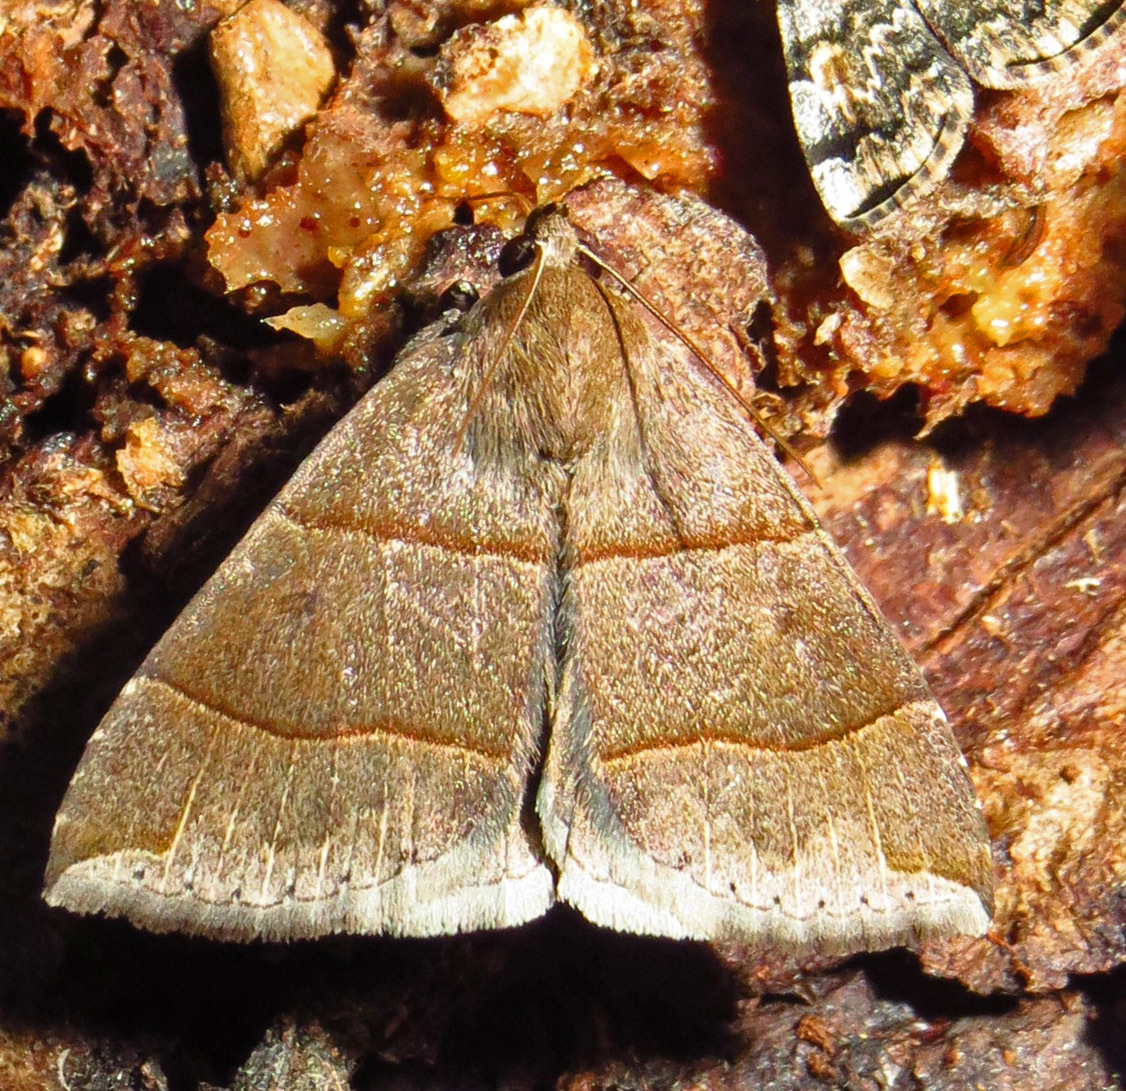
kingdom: Animalia
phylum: Arthropoda
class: Insecta
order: Lepidoptera
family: Erebidae
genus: Parallelia
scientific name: Parallelia bistriaris
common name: Maple looper moth
